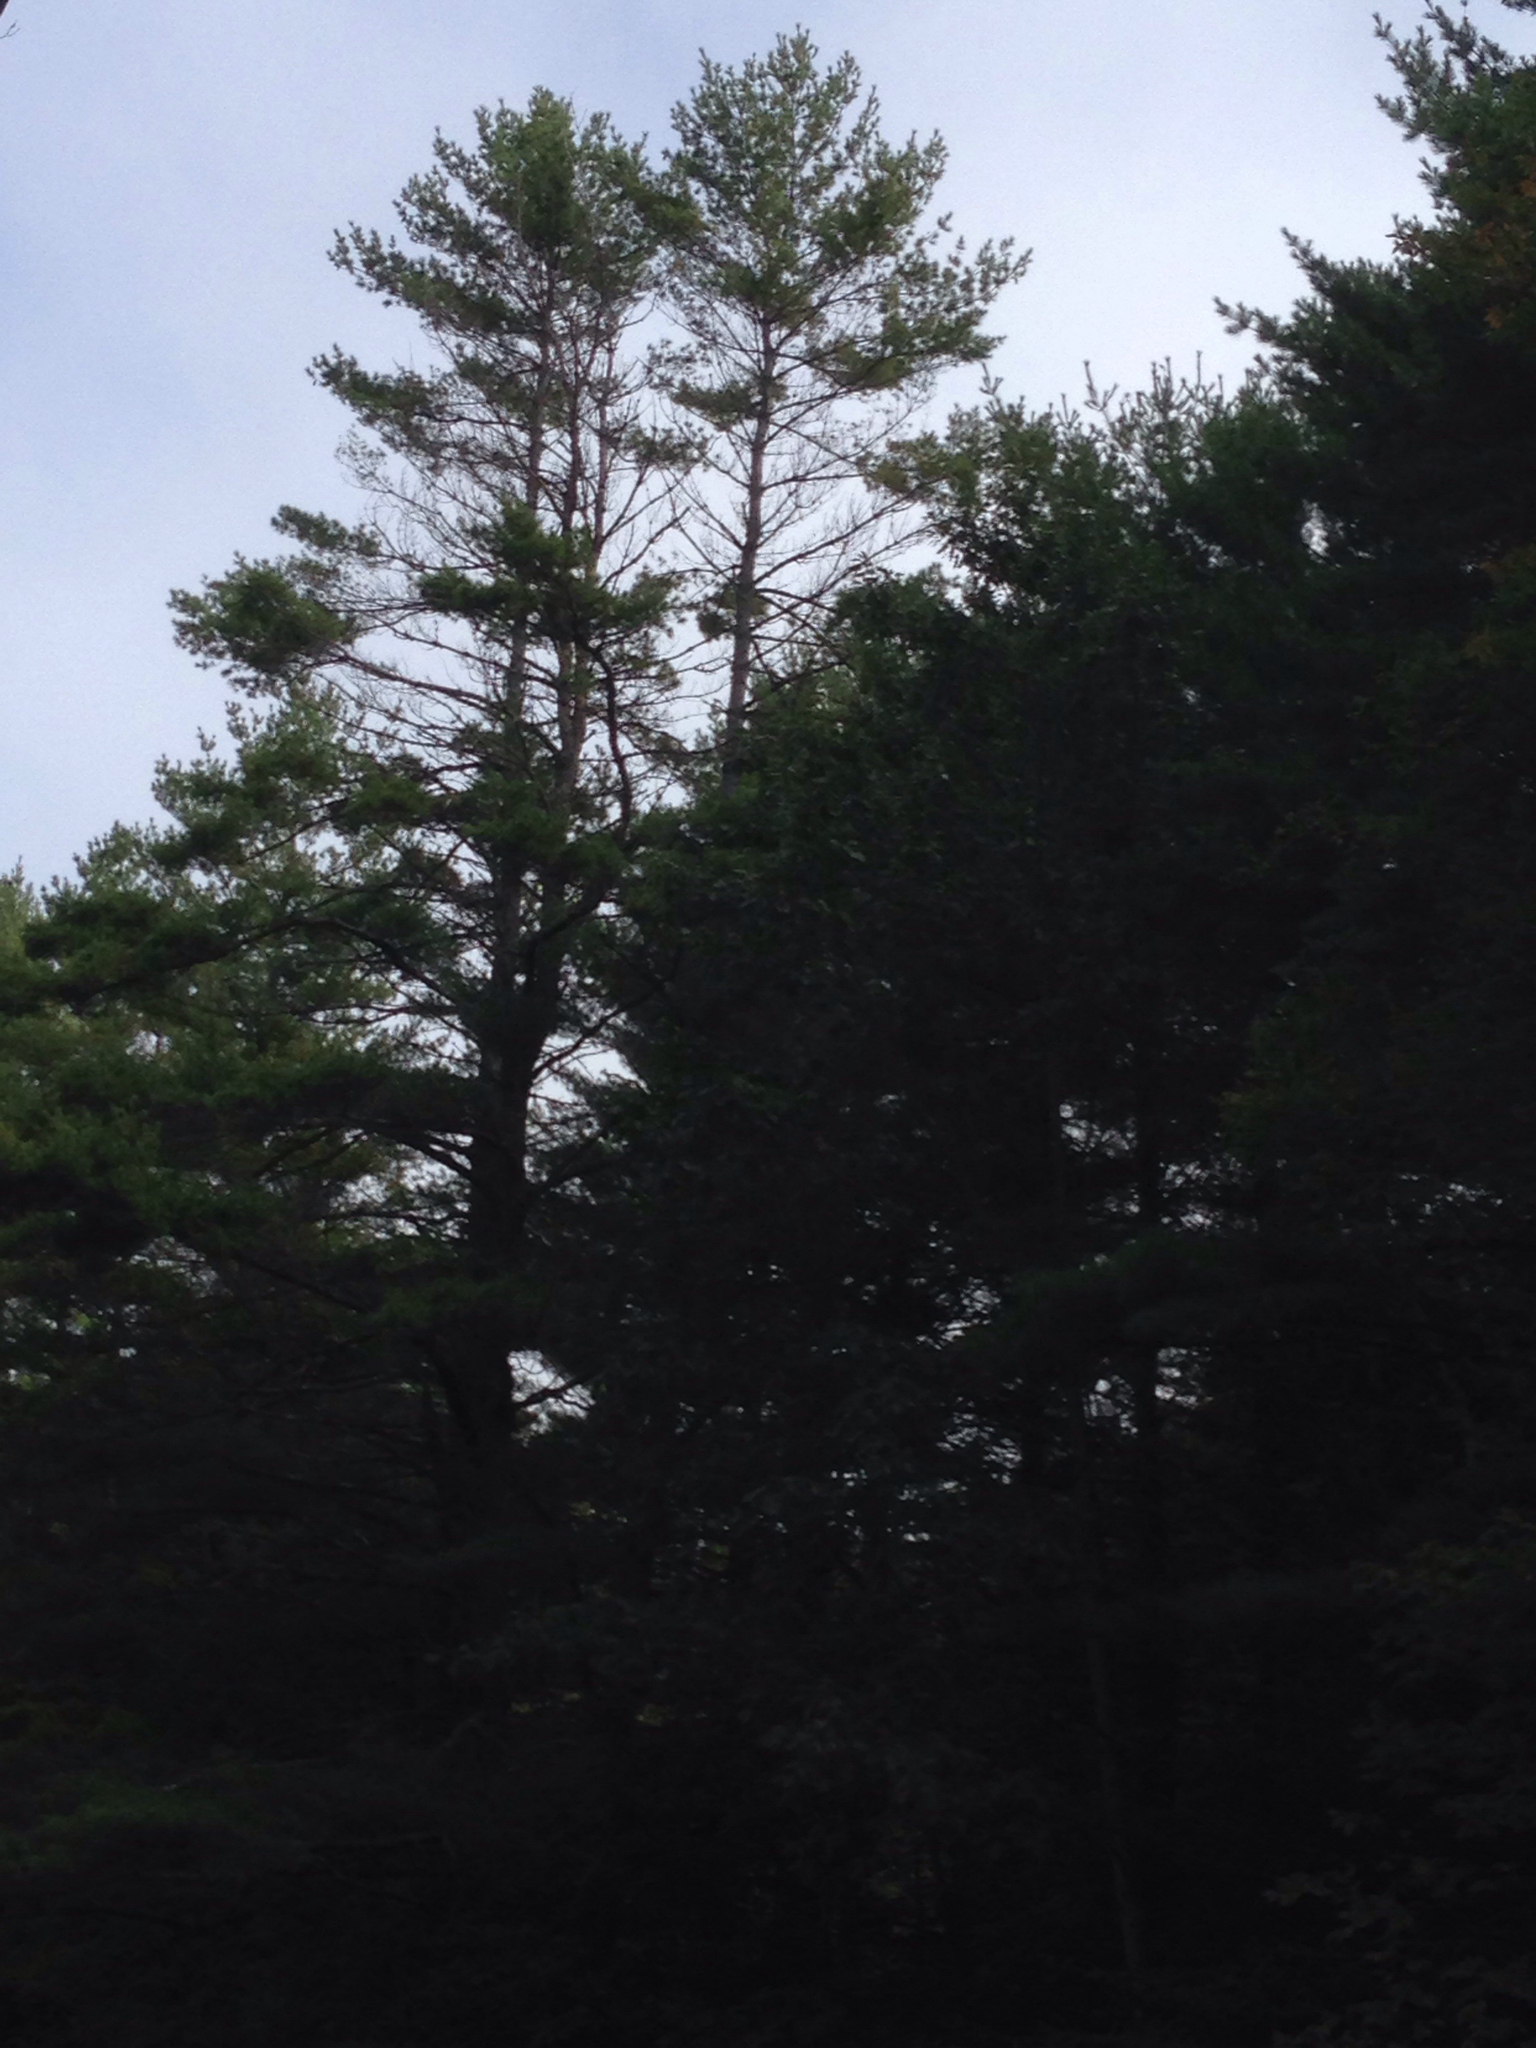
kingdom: Plantae
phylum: Tracheophyta
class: Pinopsida
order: Pinales
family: Pinaceae
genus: Pinus
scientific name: Pinus strobus
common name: Weymouth pine
